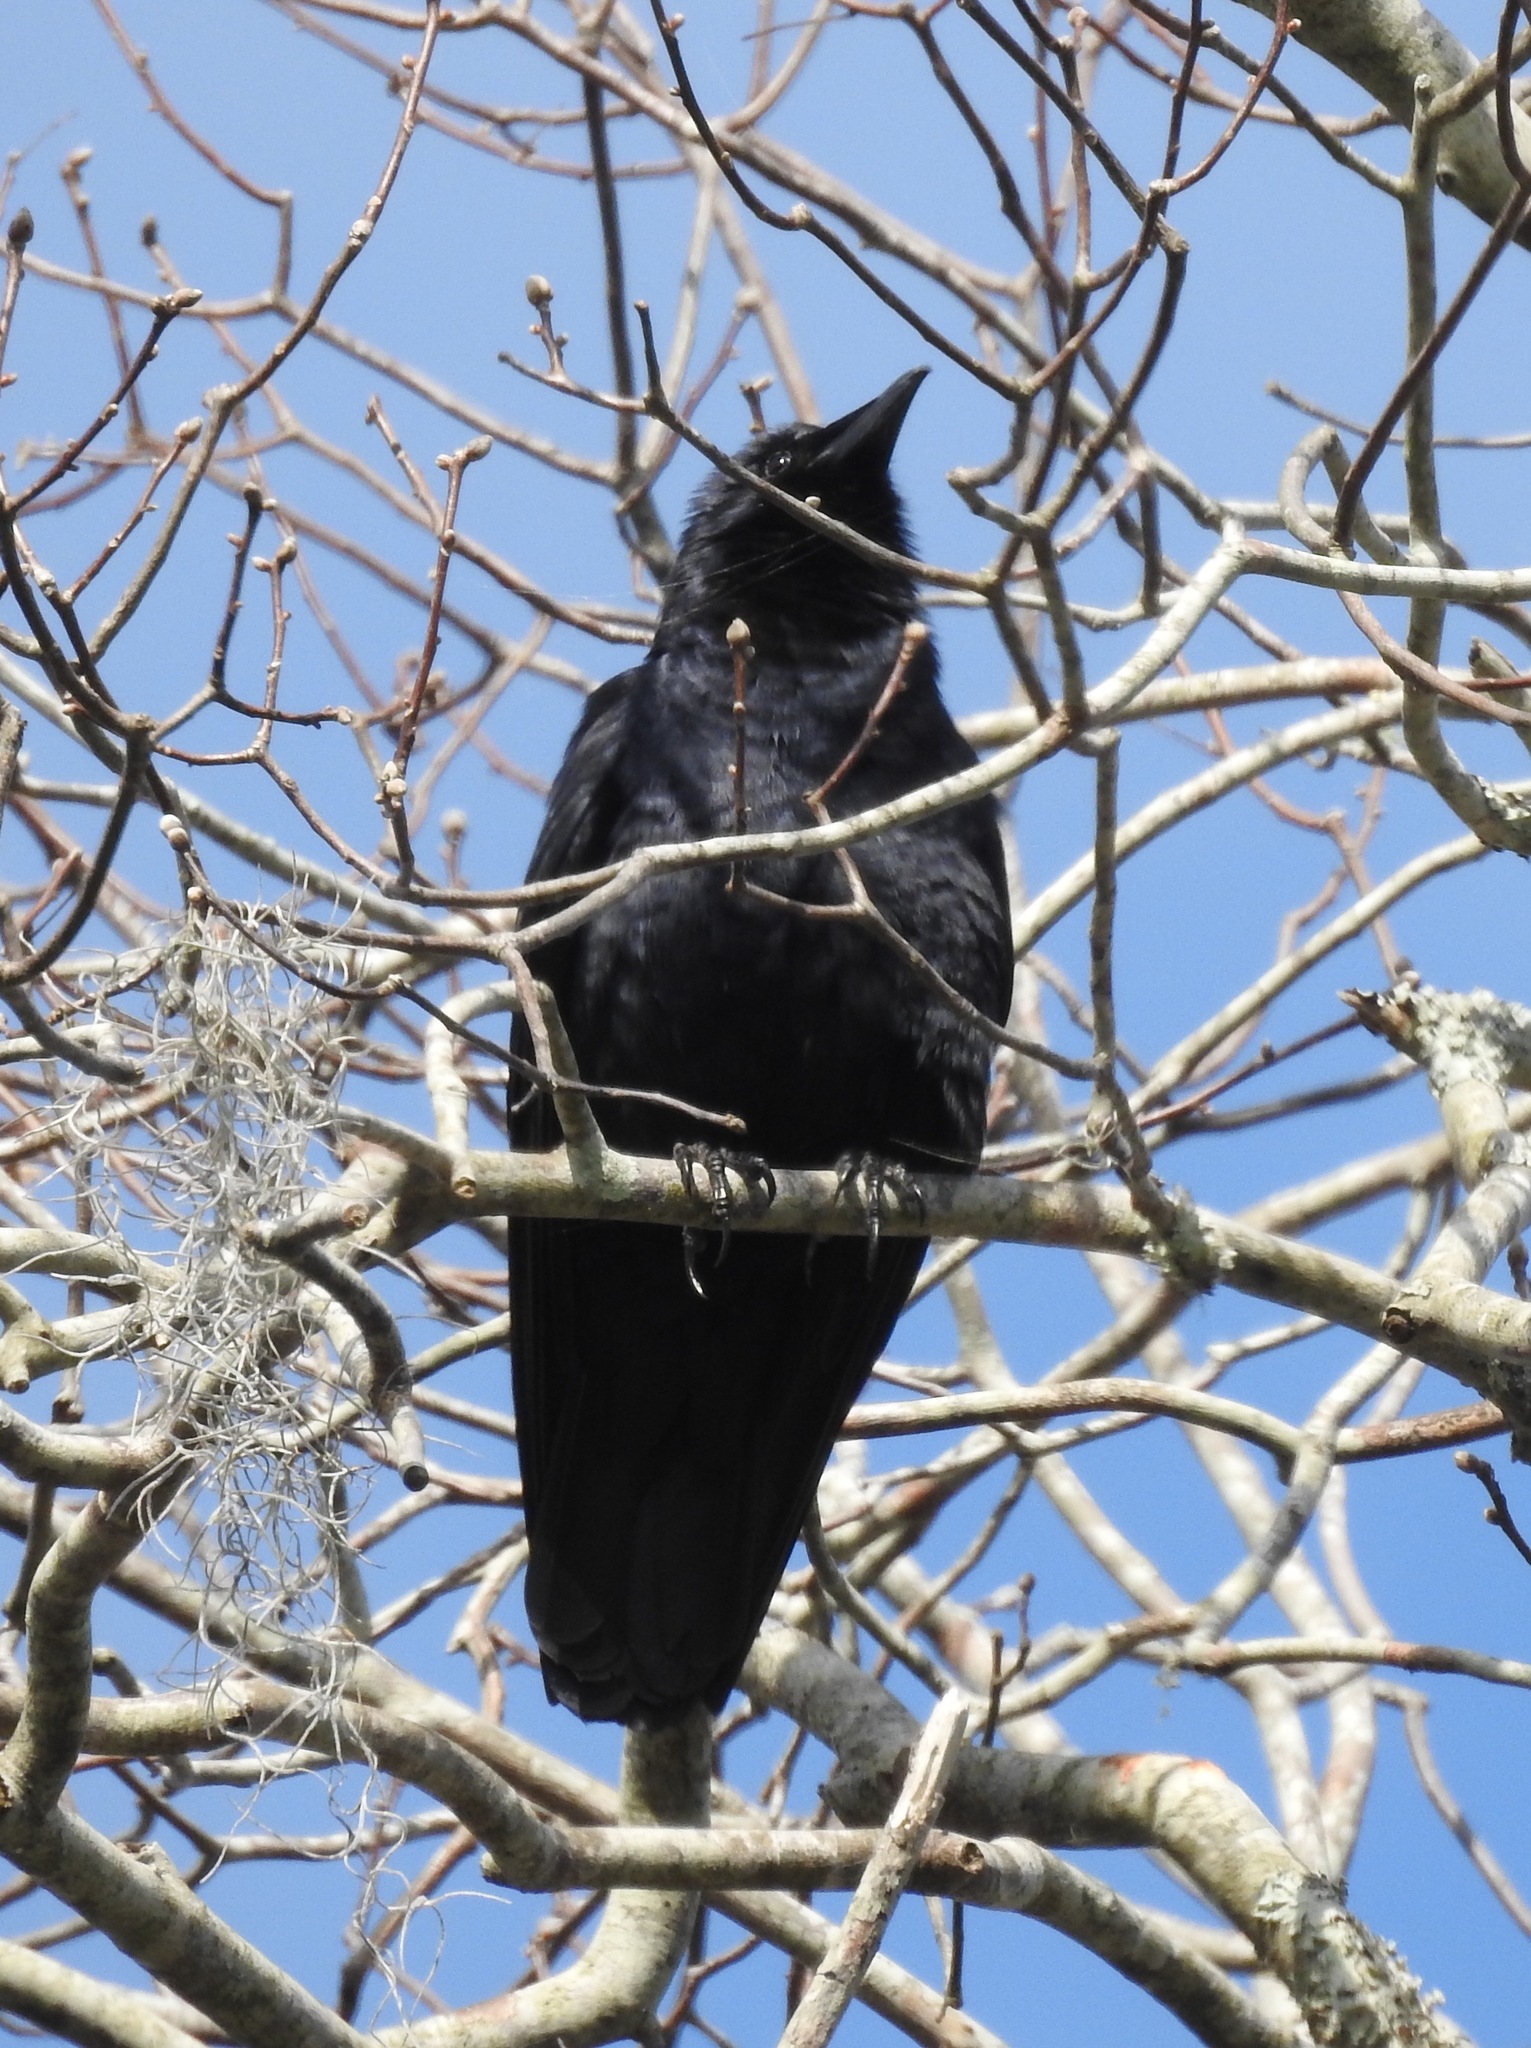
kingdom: Animalia
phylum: Chordata
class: Aves
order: Passeriformes
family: Corvidae
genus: Corvus
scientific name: Corvus ossifragus
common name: Fish crow
